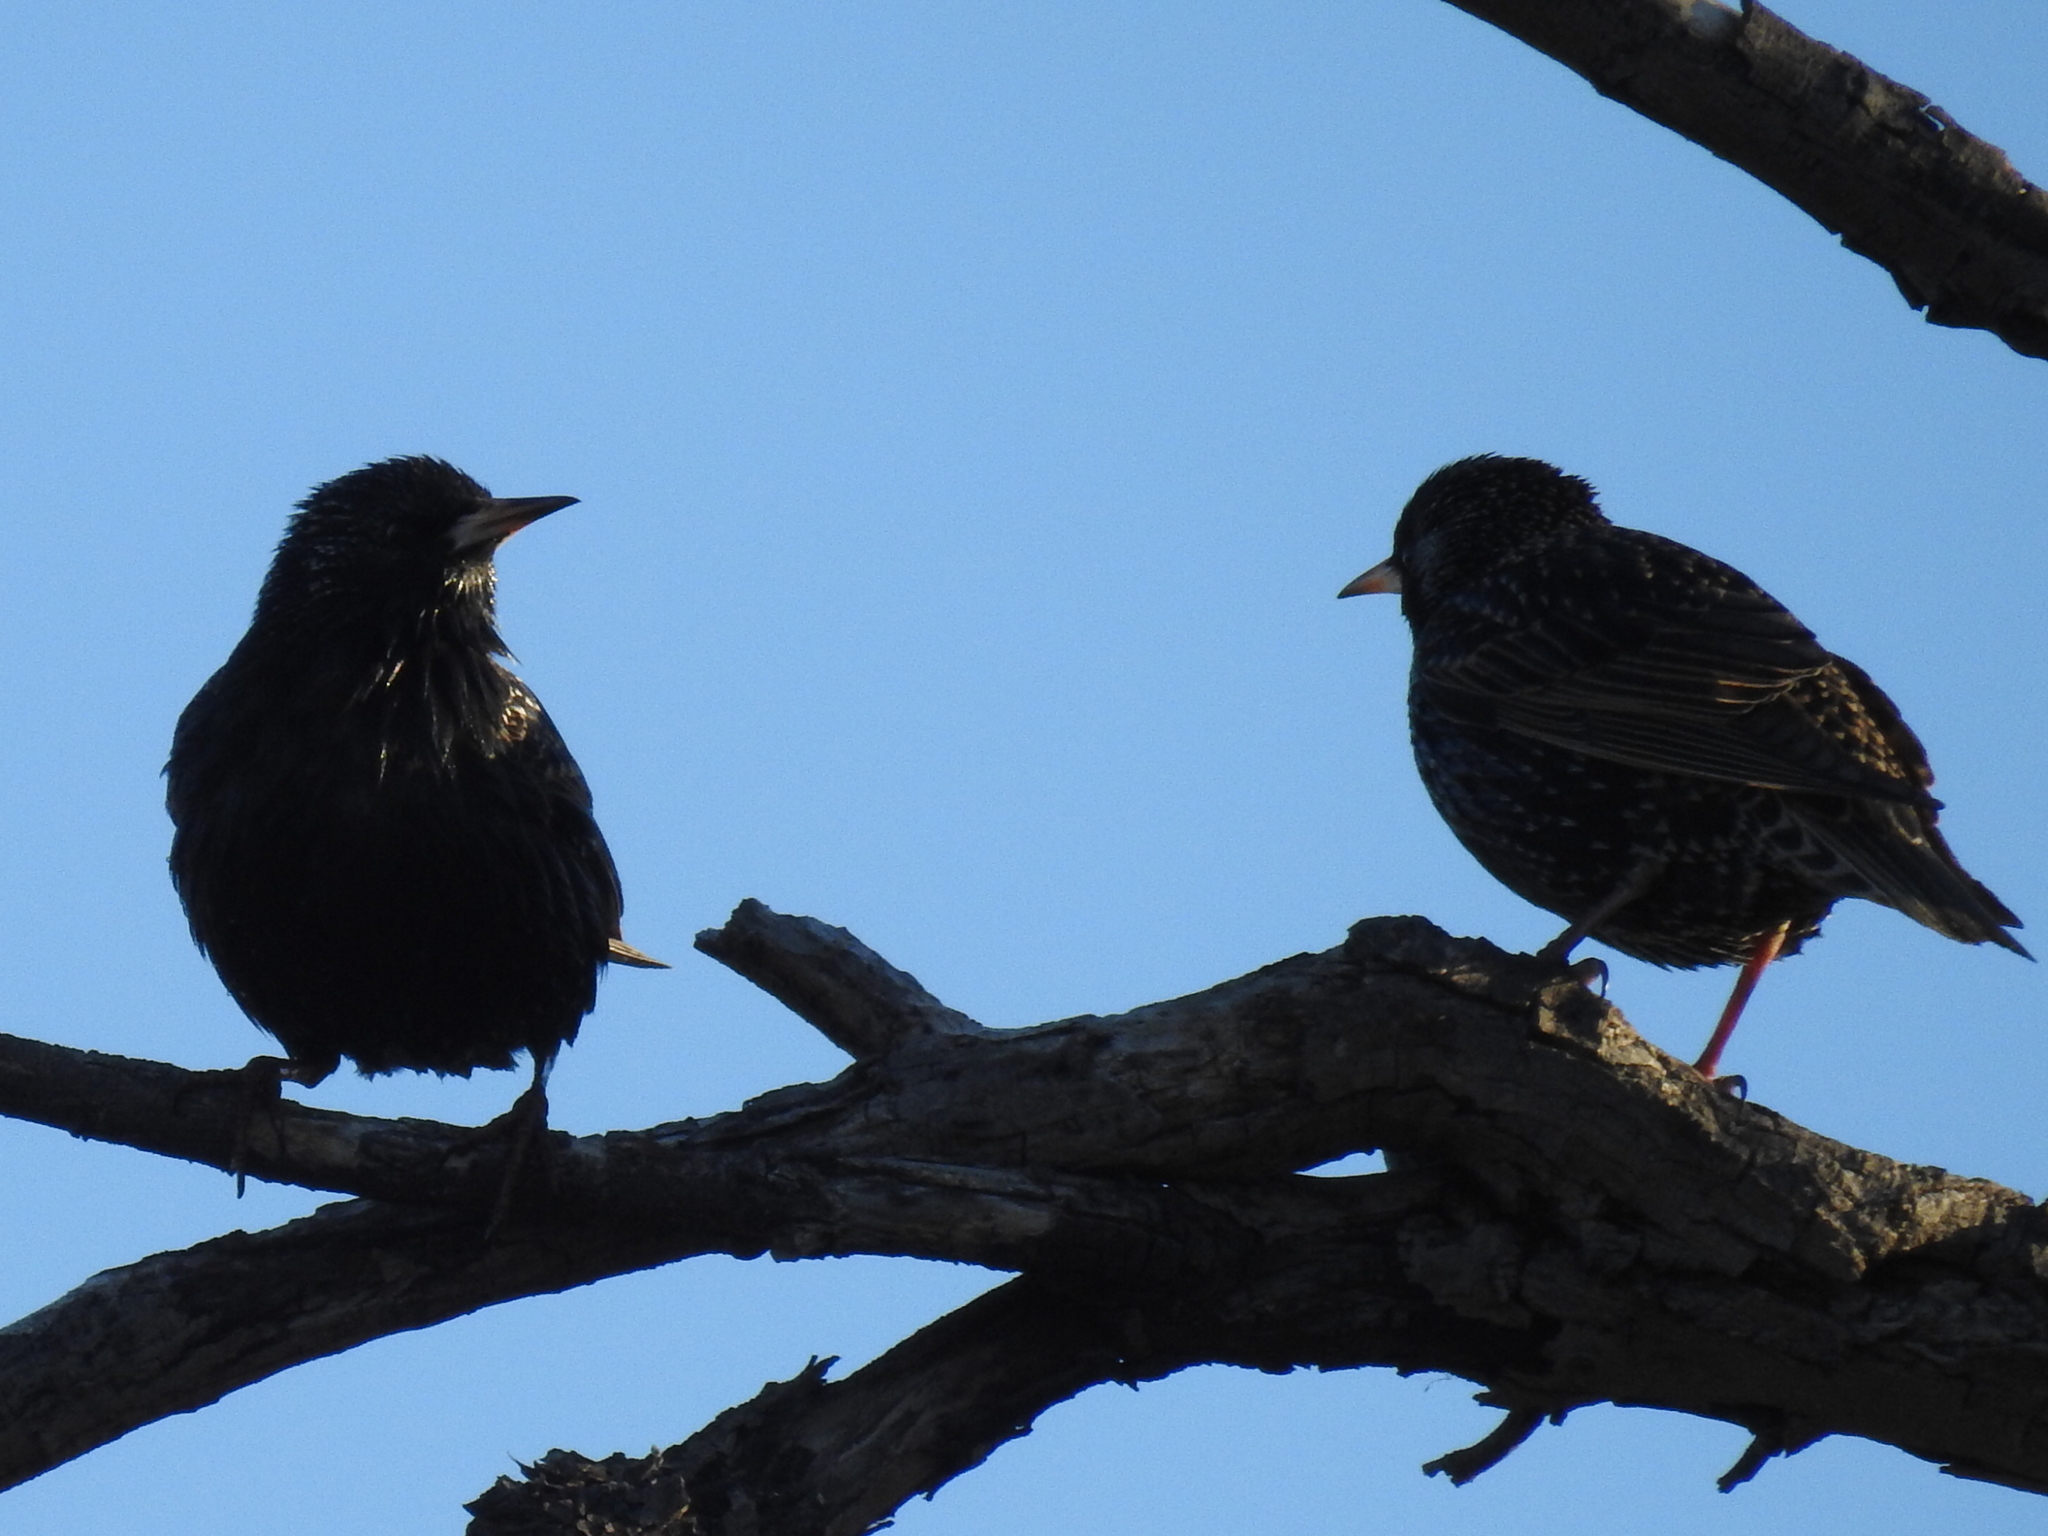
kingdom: Animalia
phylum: Chordata
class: Aves
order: Passeriformes
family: Sturnidae
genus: Sturnus
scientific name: Sturnus vulgaris
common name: Common starling
